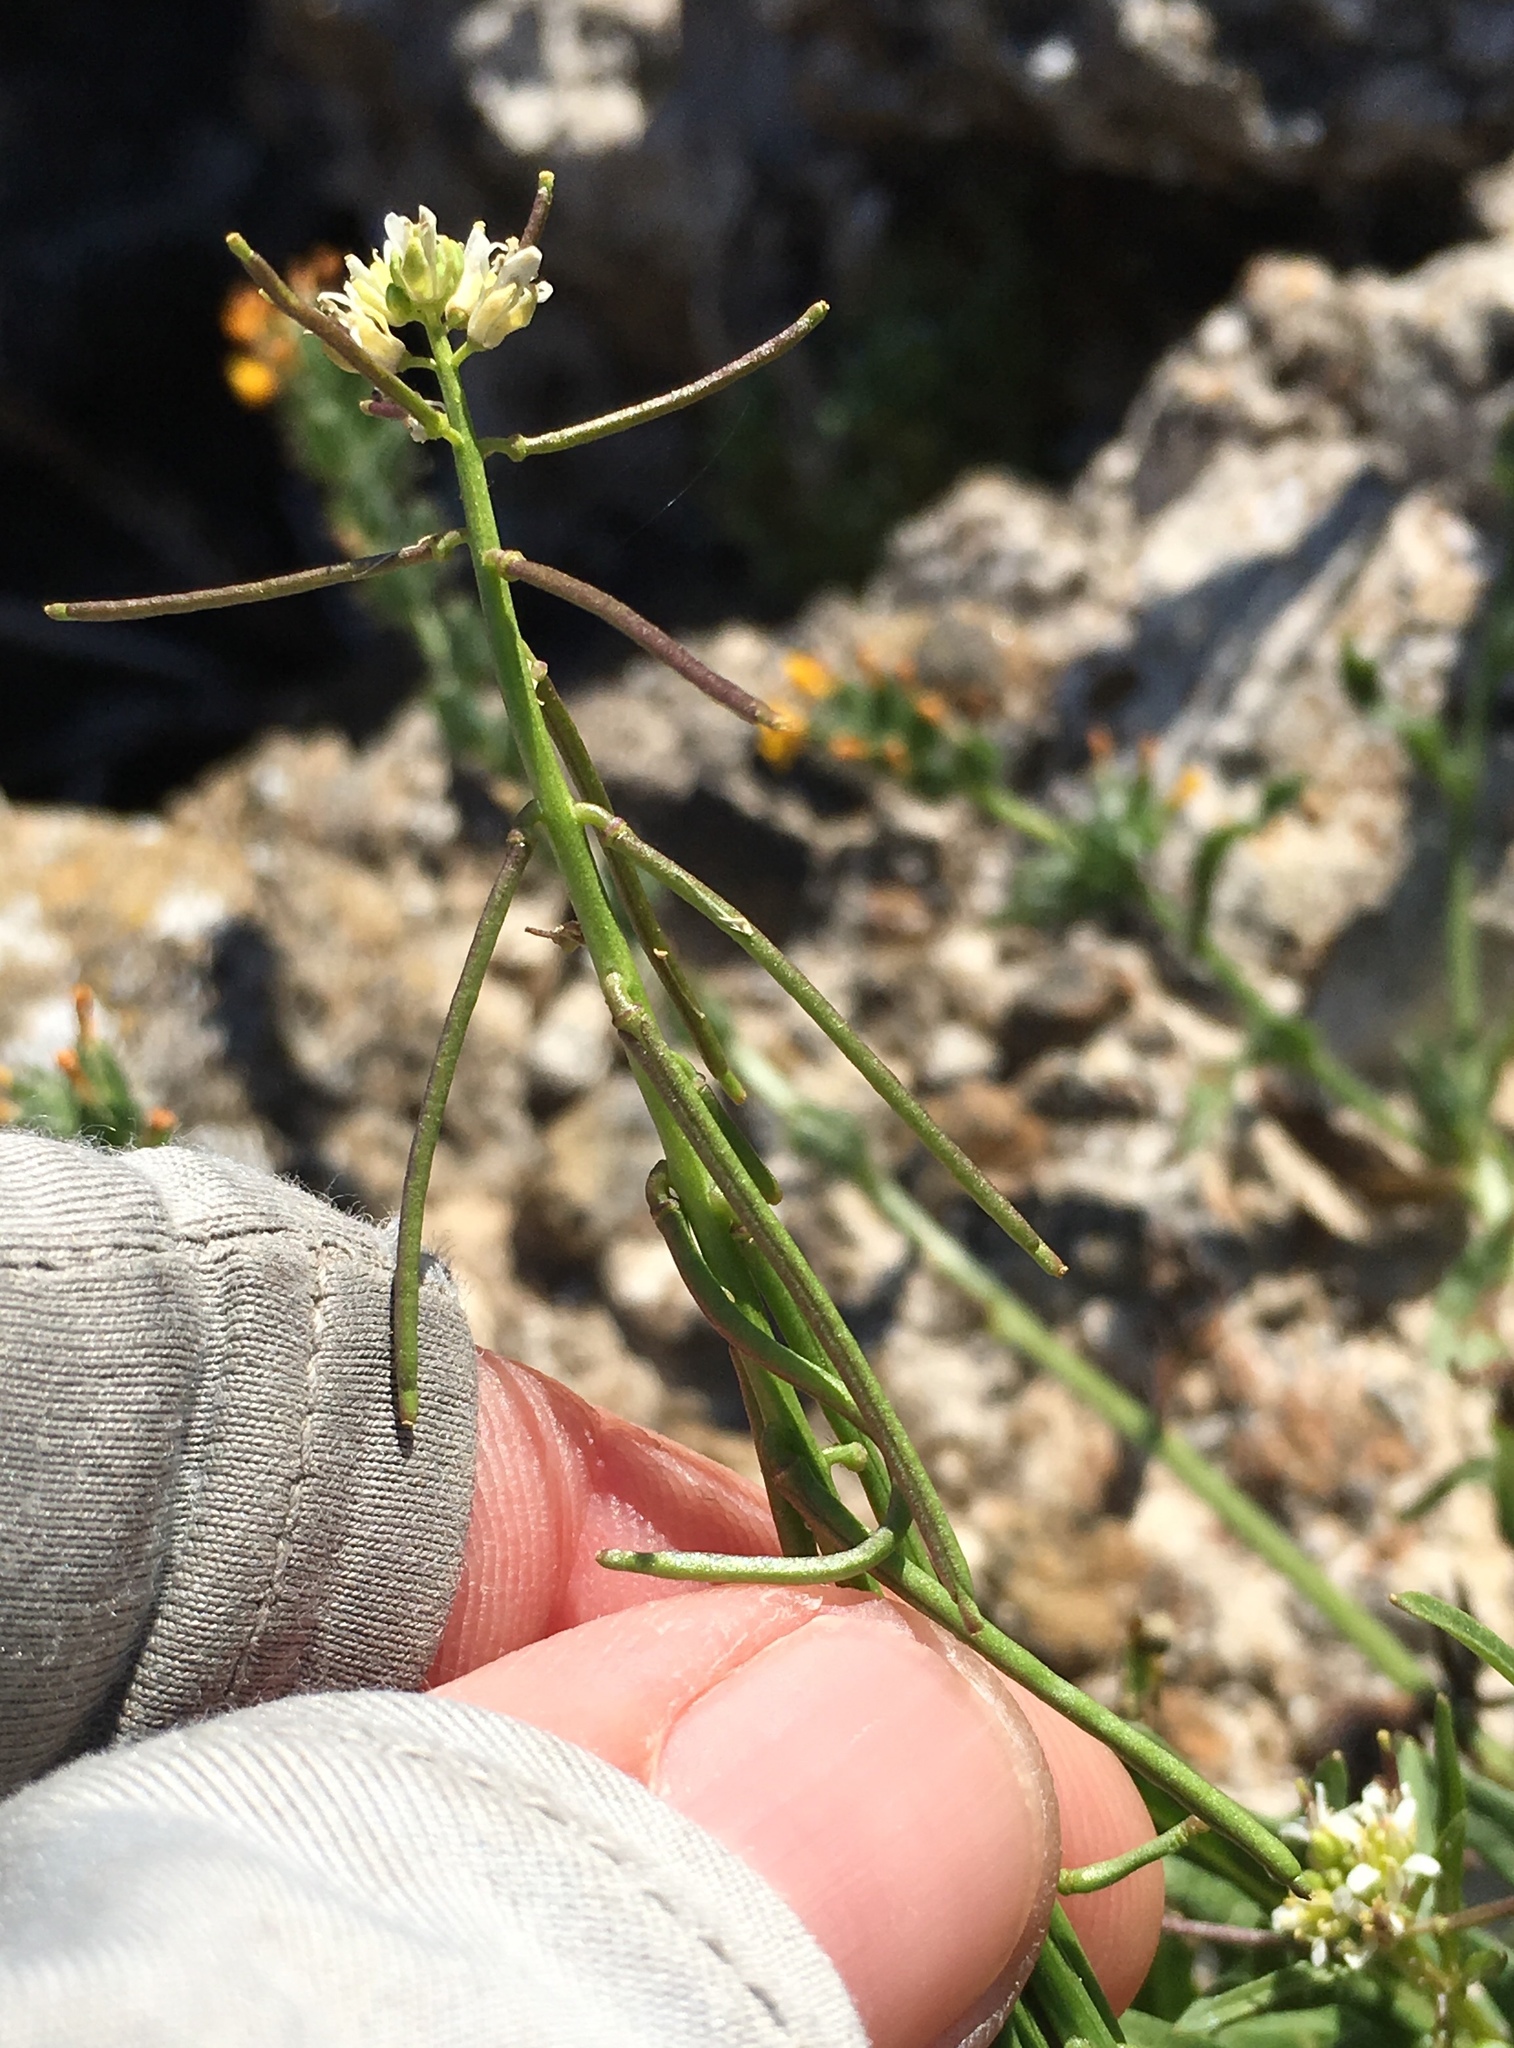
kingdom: Plantae
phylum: Tracheophyta
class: Magnoliopsida
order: Brassicales
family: Brassicaceae
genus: Streptanthus
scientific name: Streptanthus lasiophyllus
